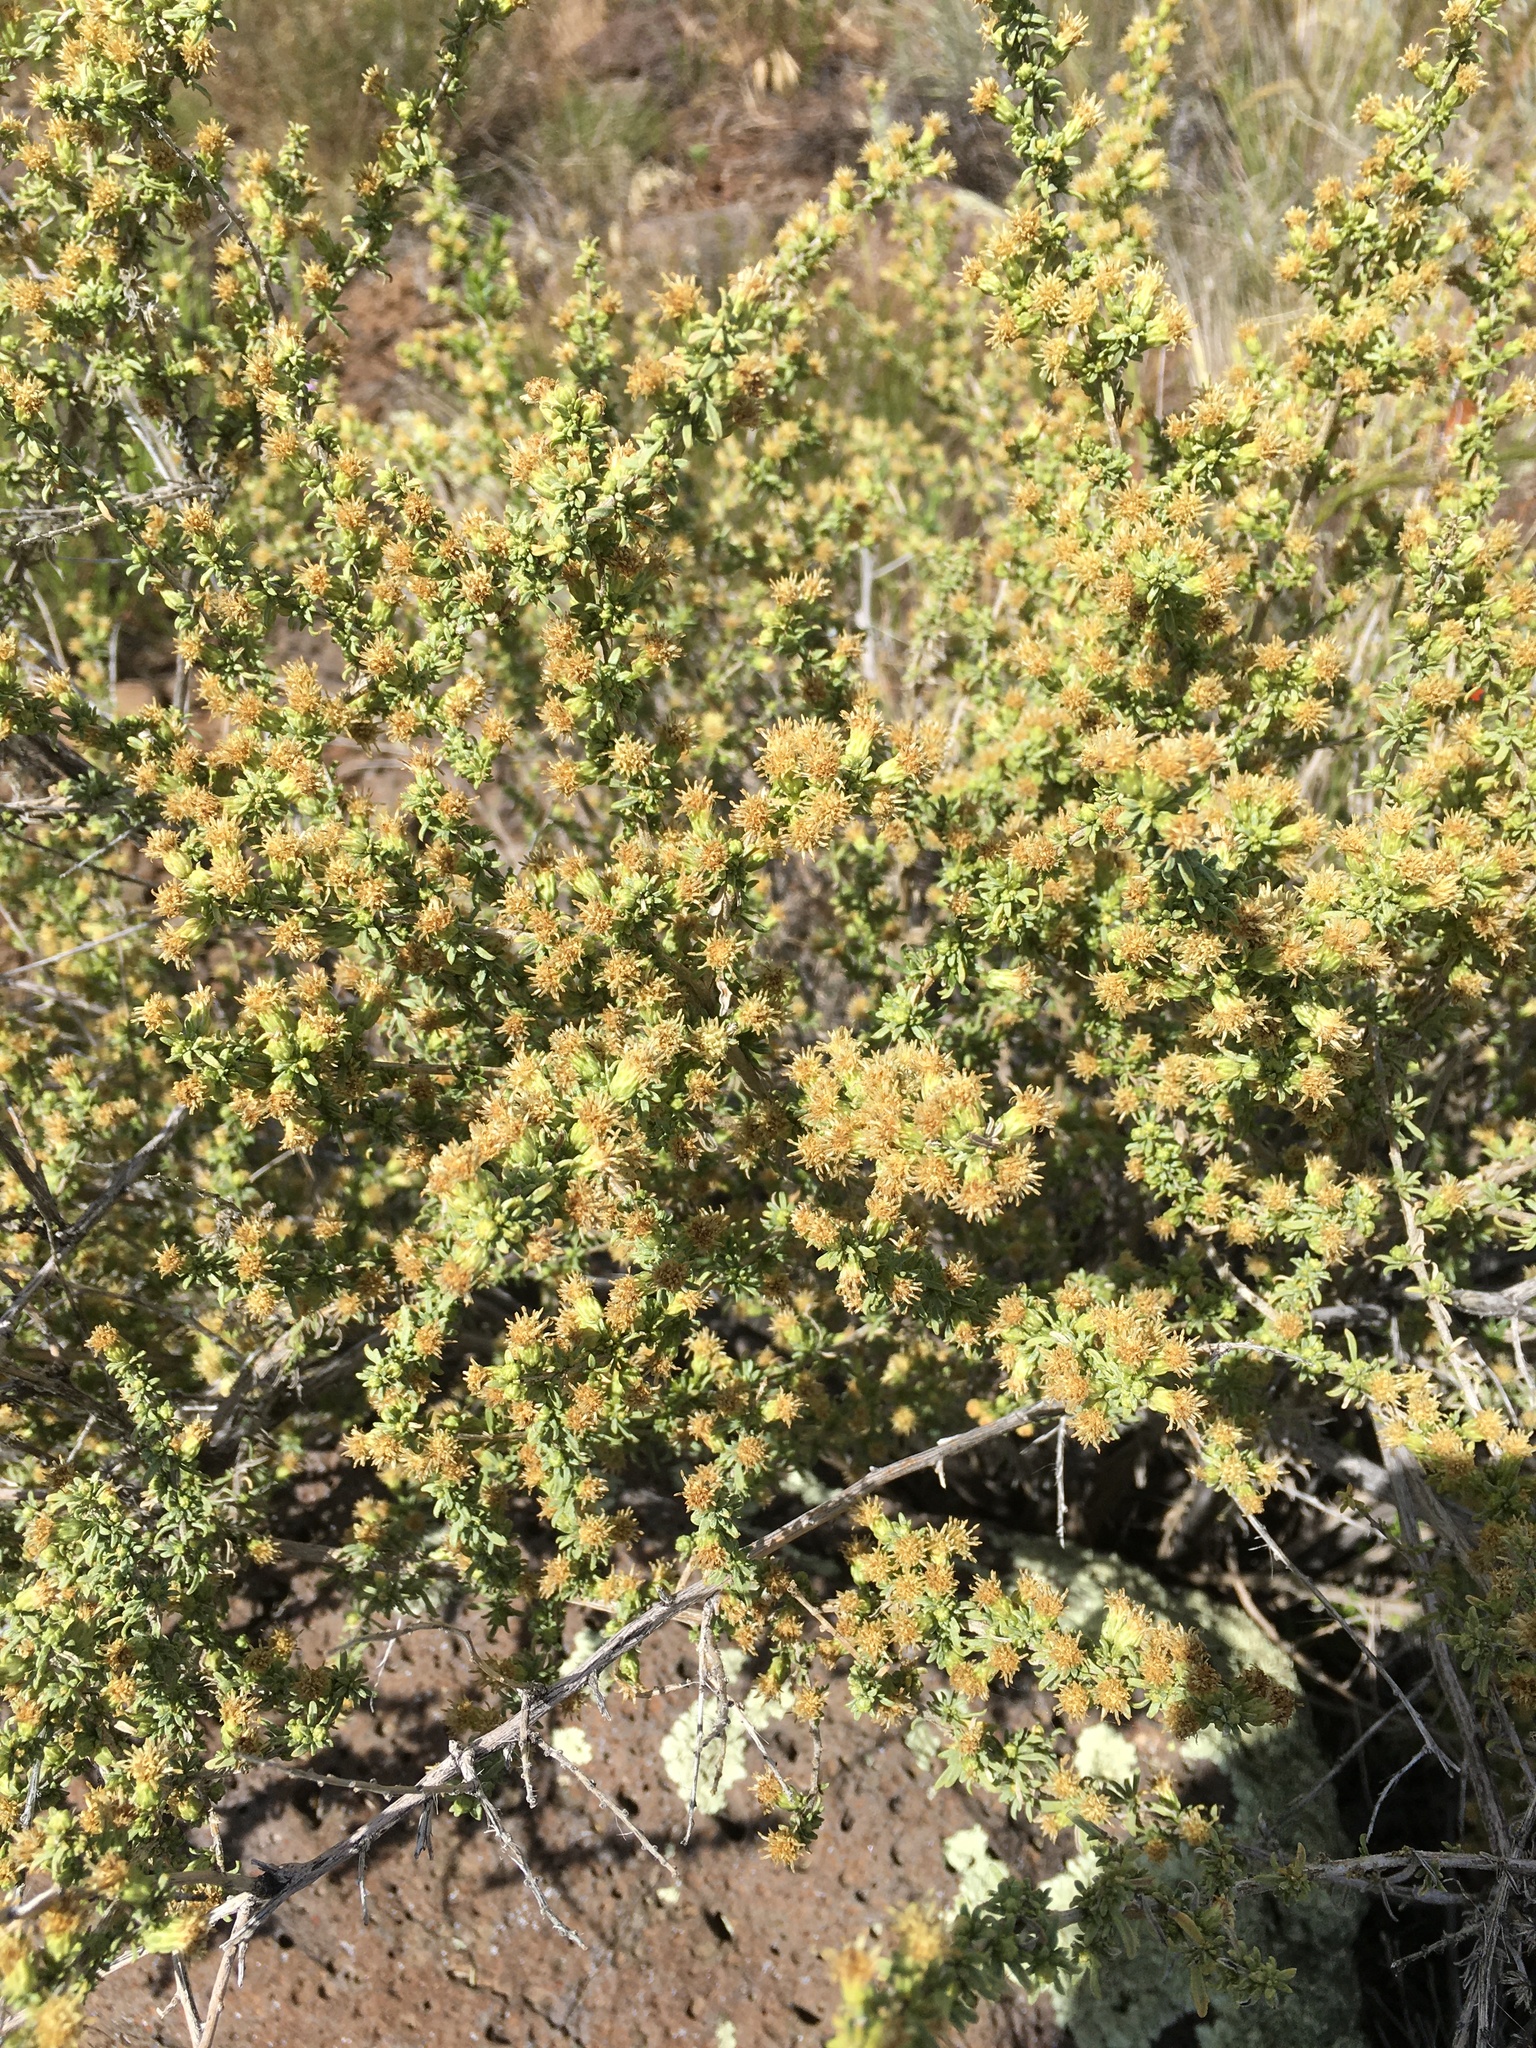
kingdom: Plantae
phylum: Tracheophyta
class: Magnoliopsida
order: Asterales
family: Asteraceae
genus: Baccharis
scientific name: Baccharis pteronioides
